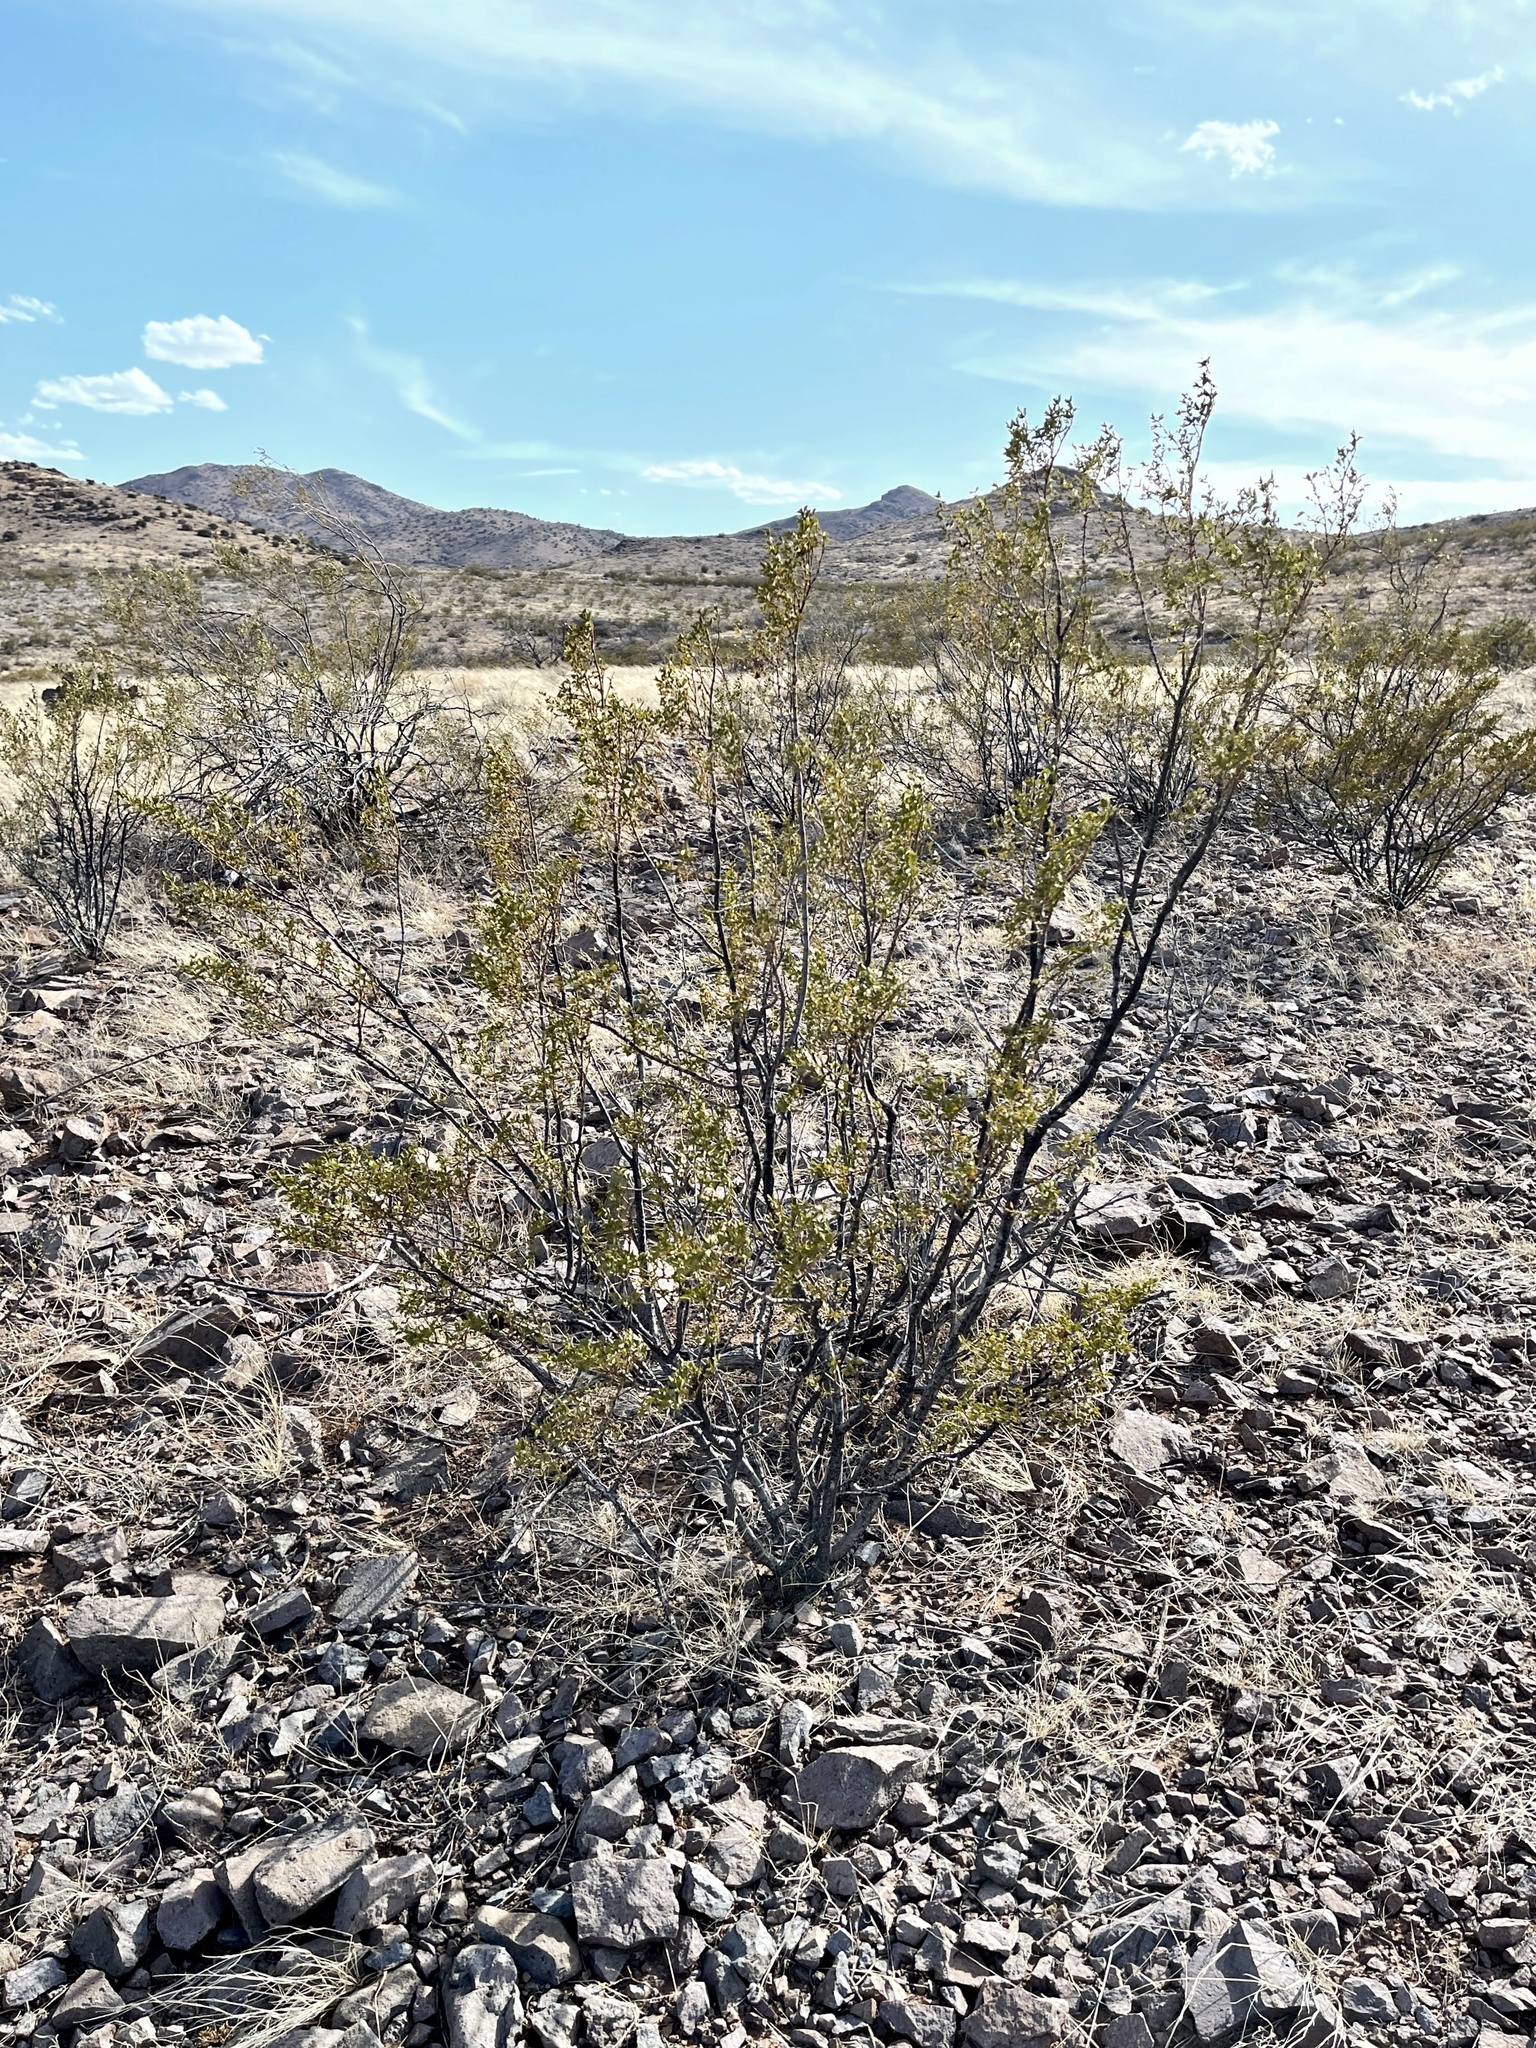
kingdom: Plantae
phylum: Tracheophyta
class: Magnoliopsida
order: Zygophyllales
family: Zygophyllaceae
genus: Larrea
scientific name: Larrea tridentata
